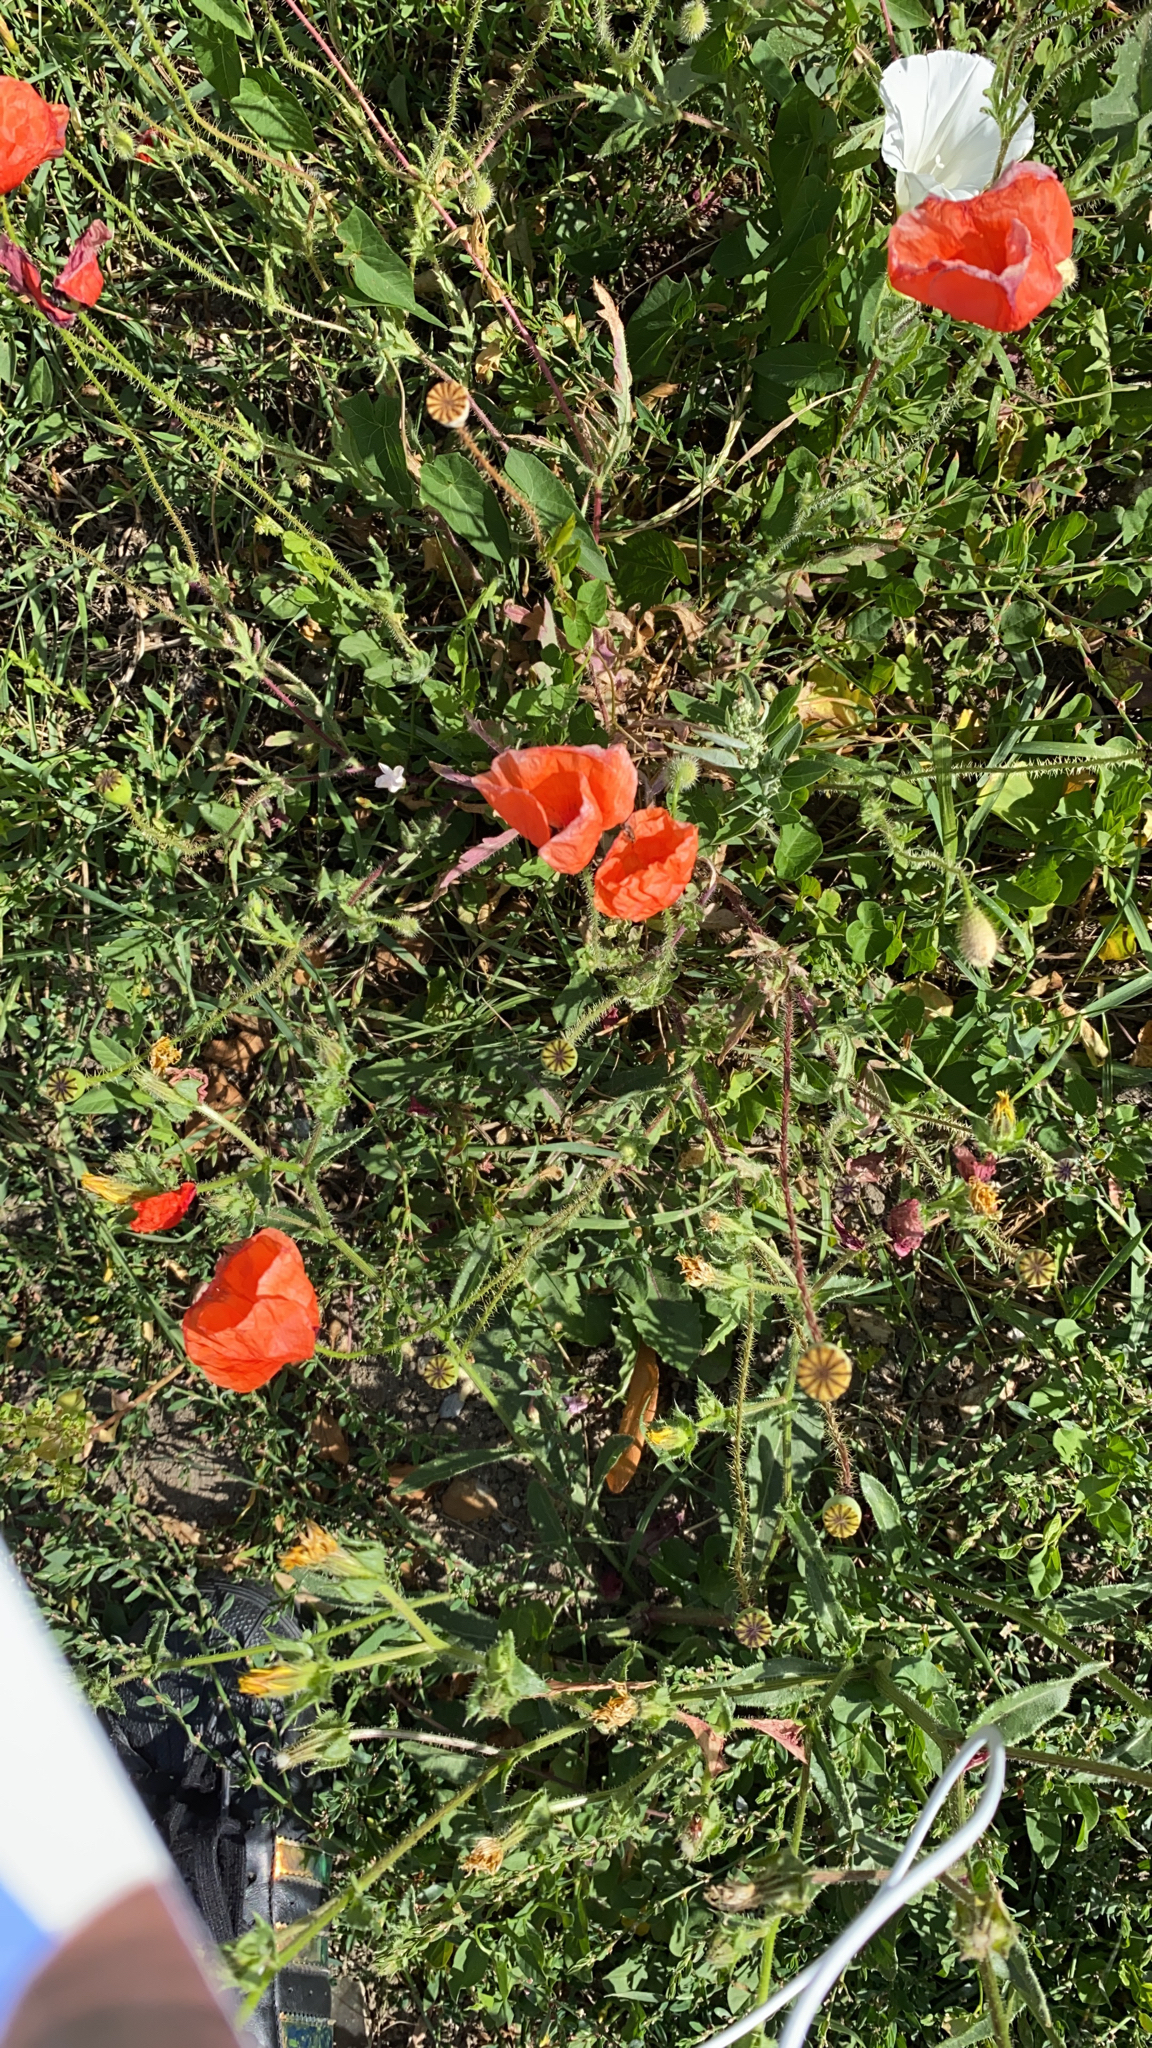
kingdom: Plantae
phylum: Tracheophyta
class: Magnoliopsida
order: Ranunculales
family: Papaveraceae
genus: Papaver
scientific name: Papaver rhoeas
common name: Corn poppy
